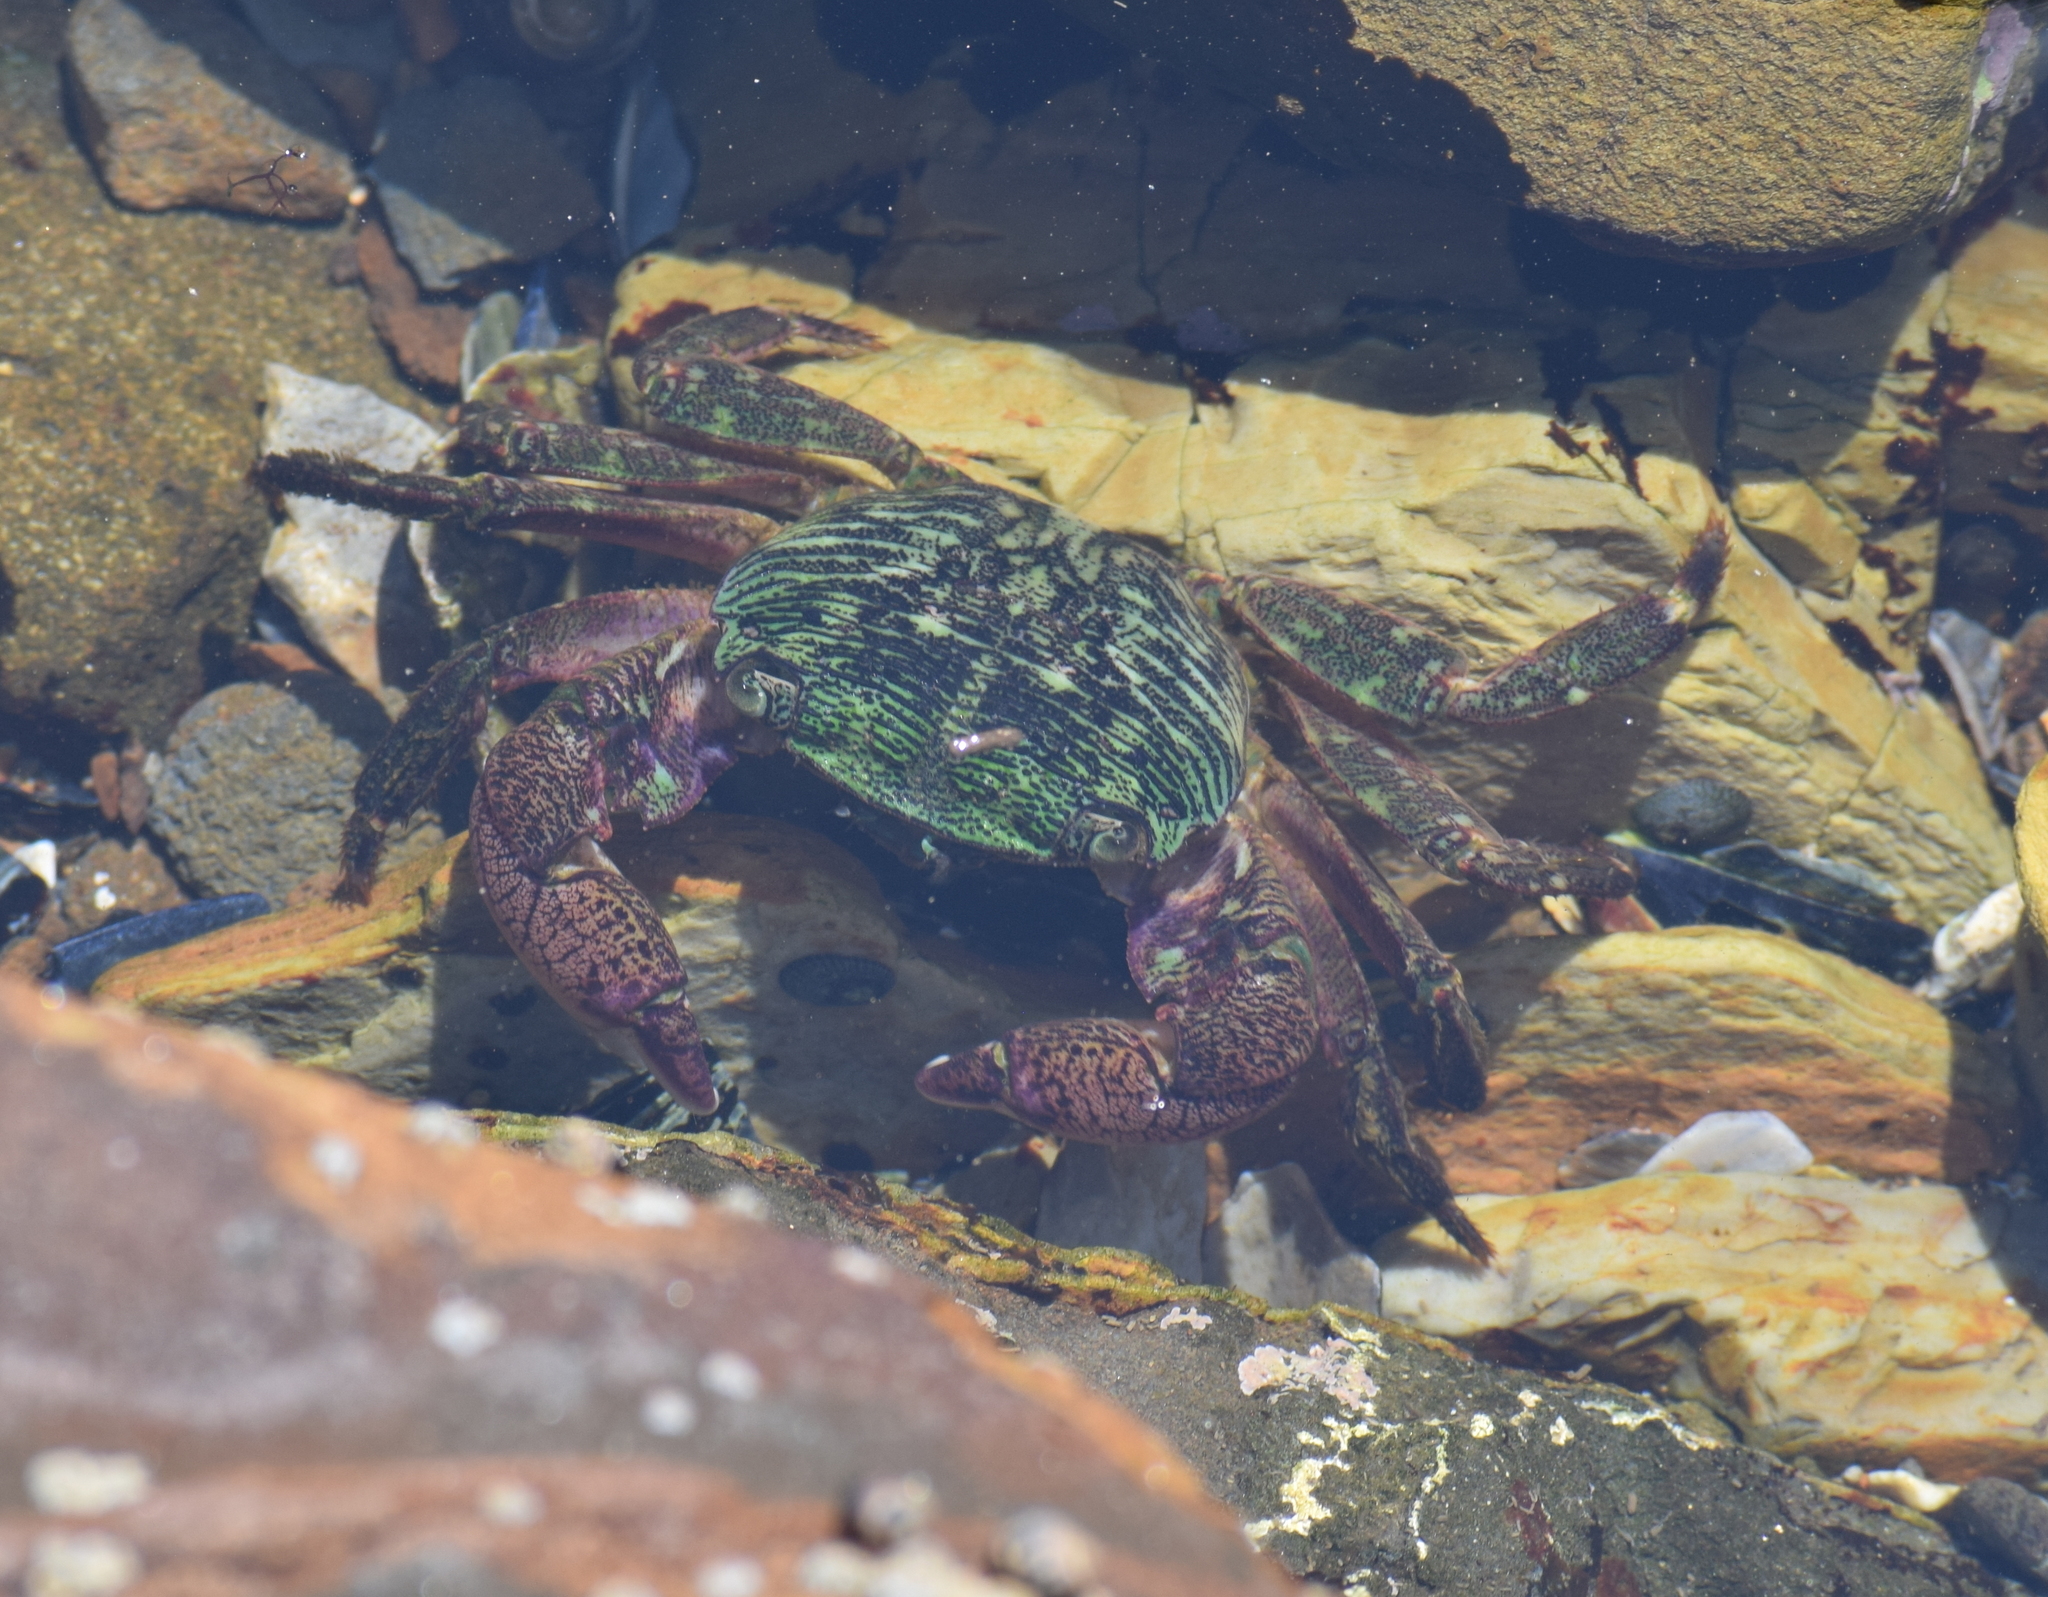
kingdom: Animalia
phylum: Arthropoda
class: Malacostraca
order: Decapoda
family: Grapsidae
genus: Pachygrapsus
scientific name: Pachygrapsus crassipes
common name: Striped shore crab
